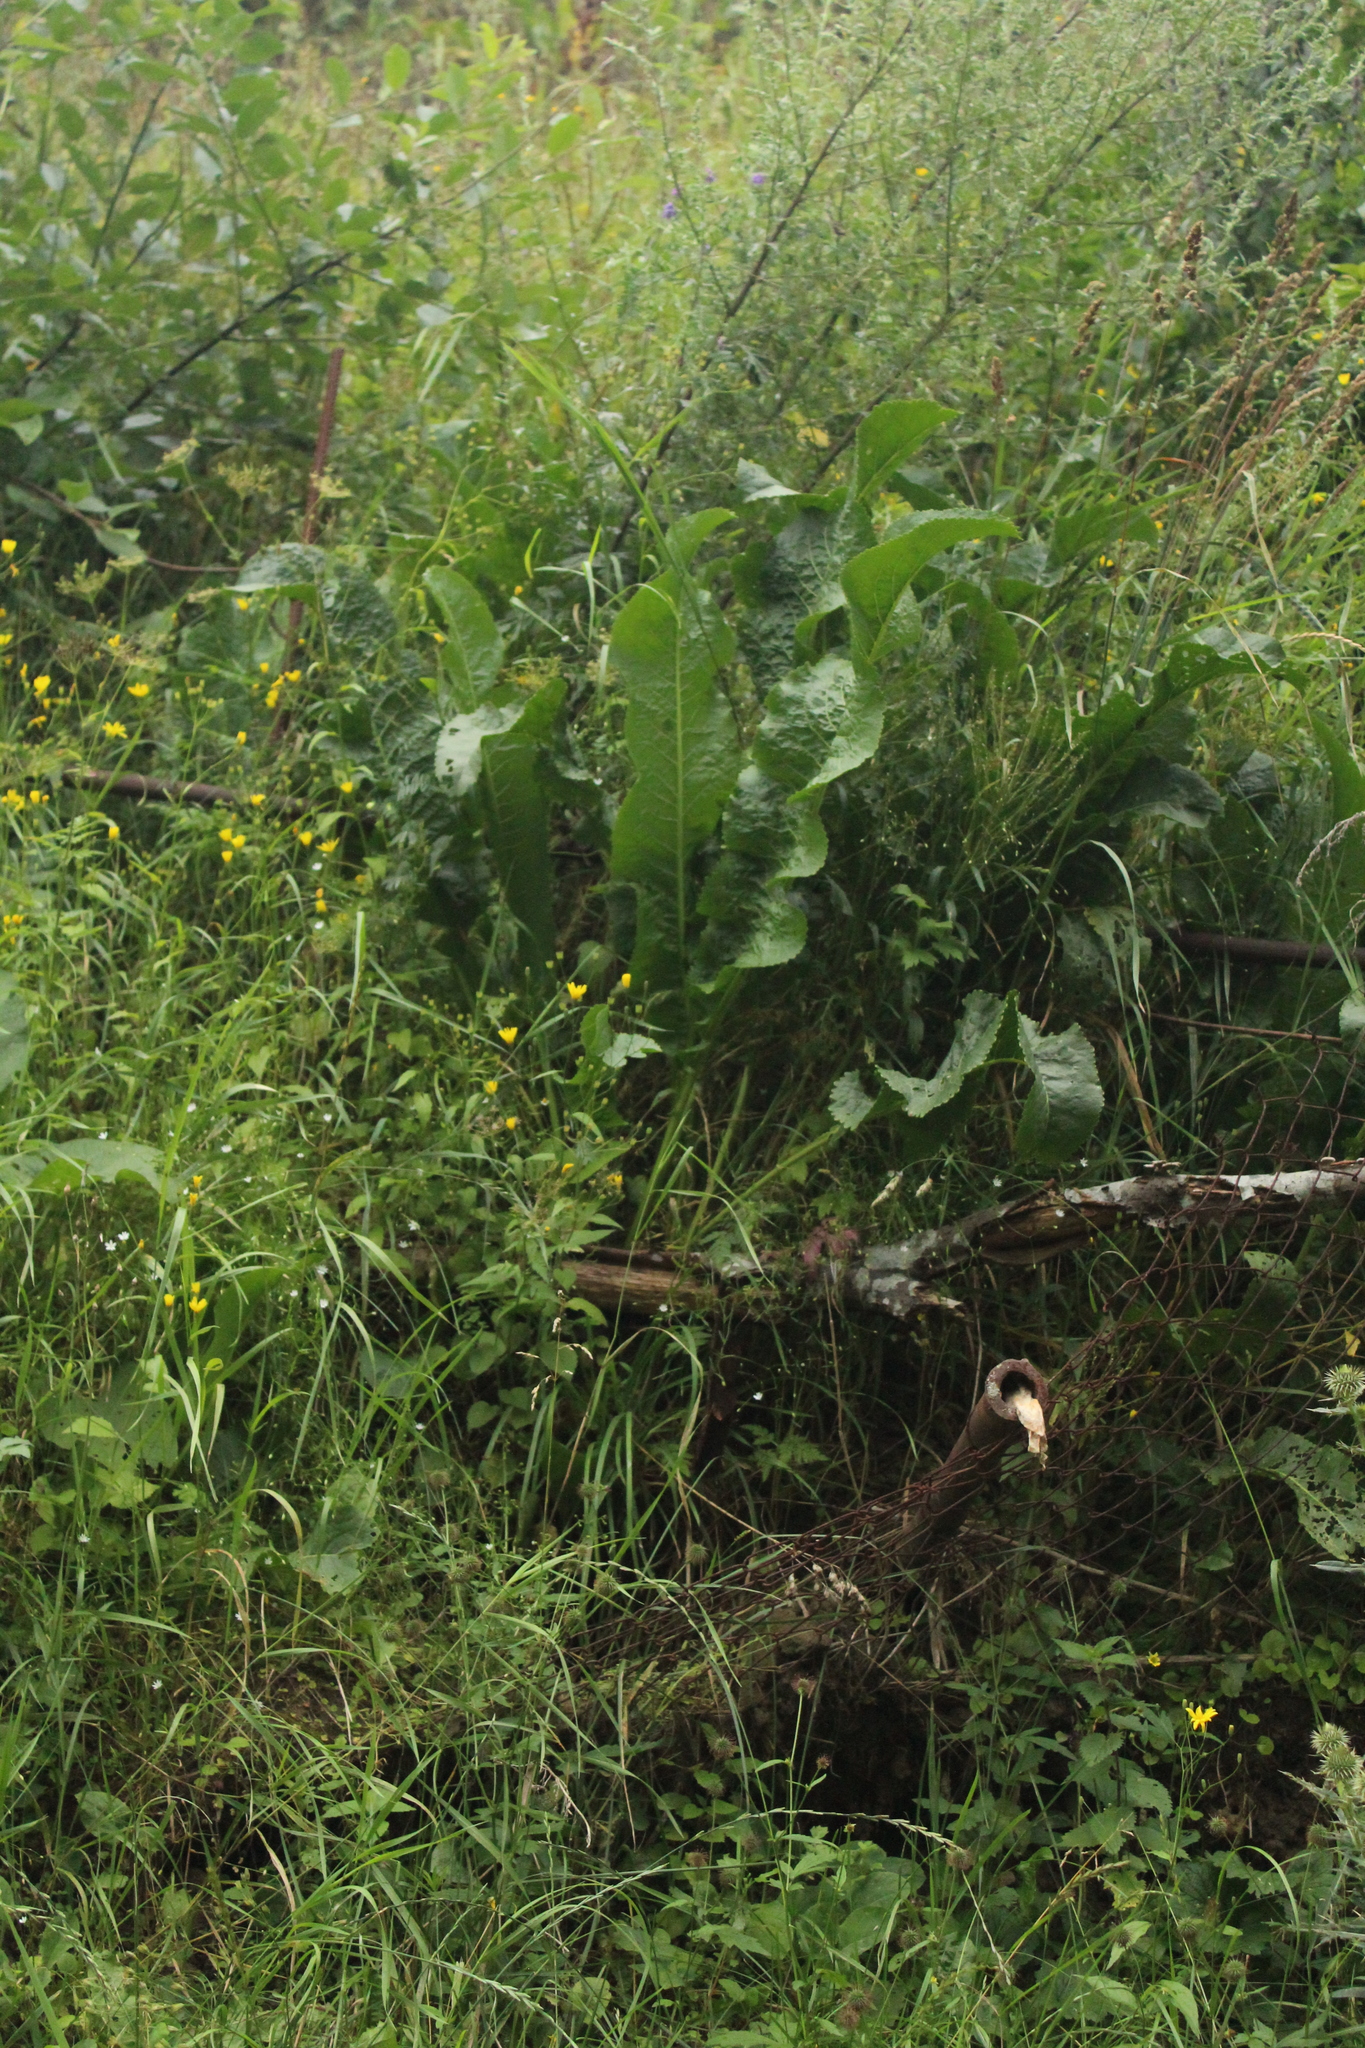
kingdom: Plantae
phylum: Tracheophyta
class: Magnoliopsida
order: Brassicales
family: Brassicaceae
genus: Armoracia
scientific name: Armoracia rusticana
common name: Horseradish
